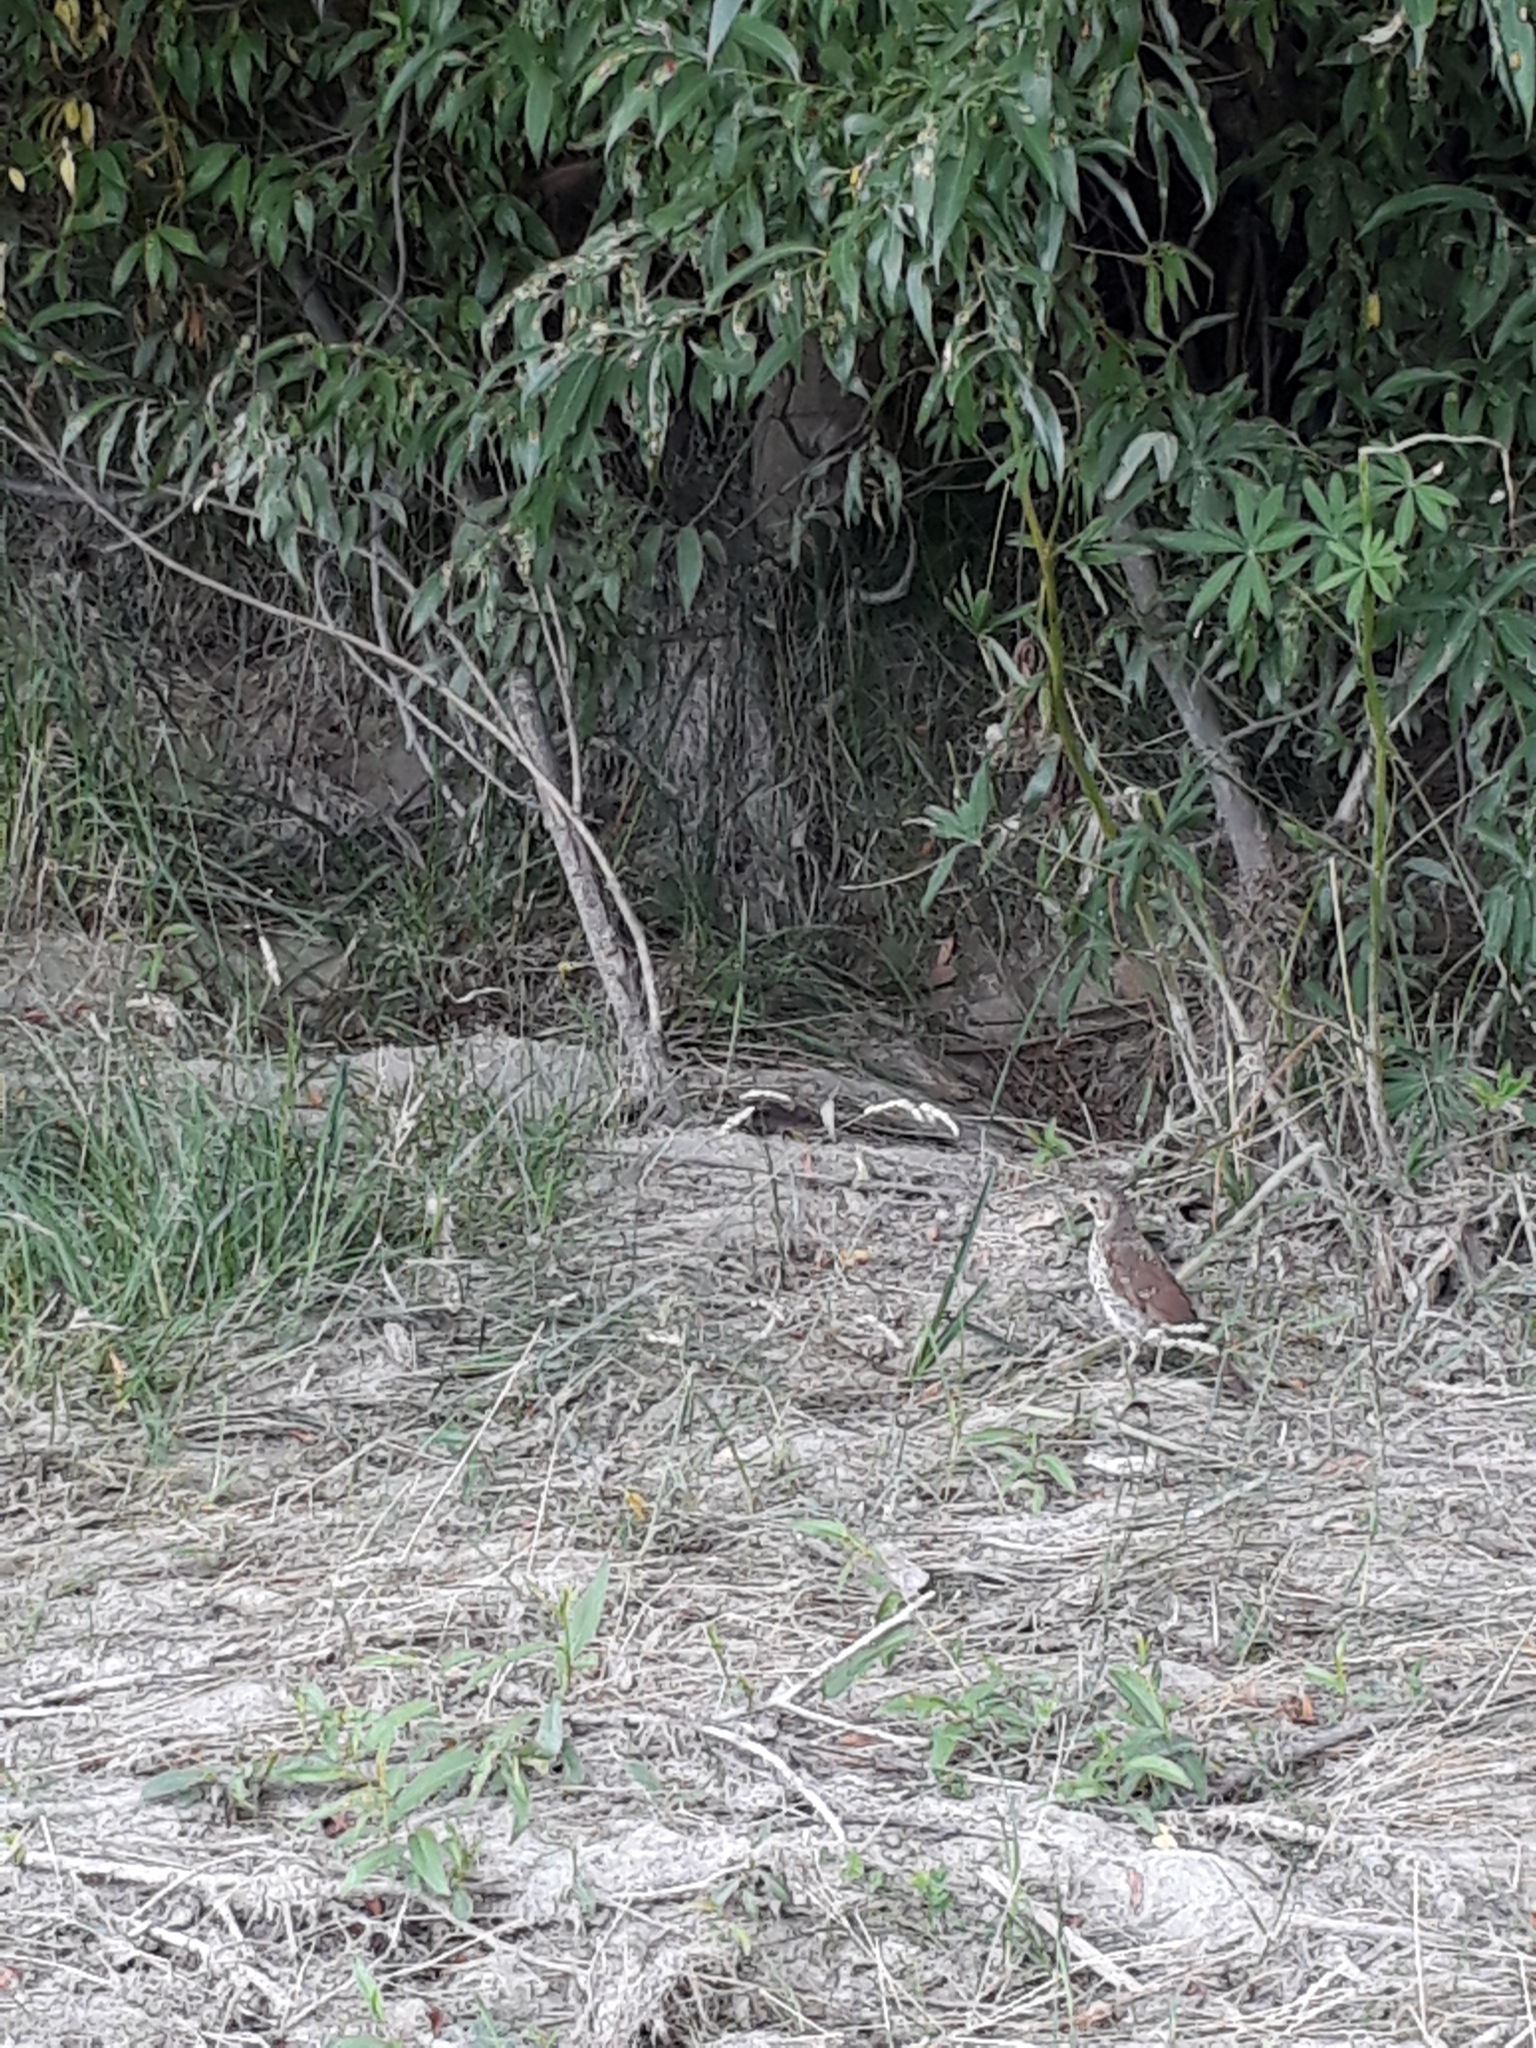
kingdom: Animalia
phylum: Chordata
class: Aves
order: Passeriformes
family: Turdidae
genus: Turdus
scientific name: Turdus philomelos
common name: Song thrush
